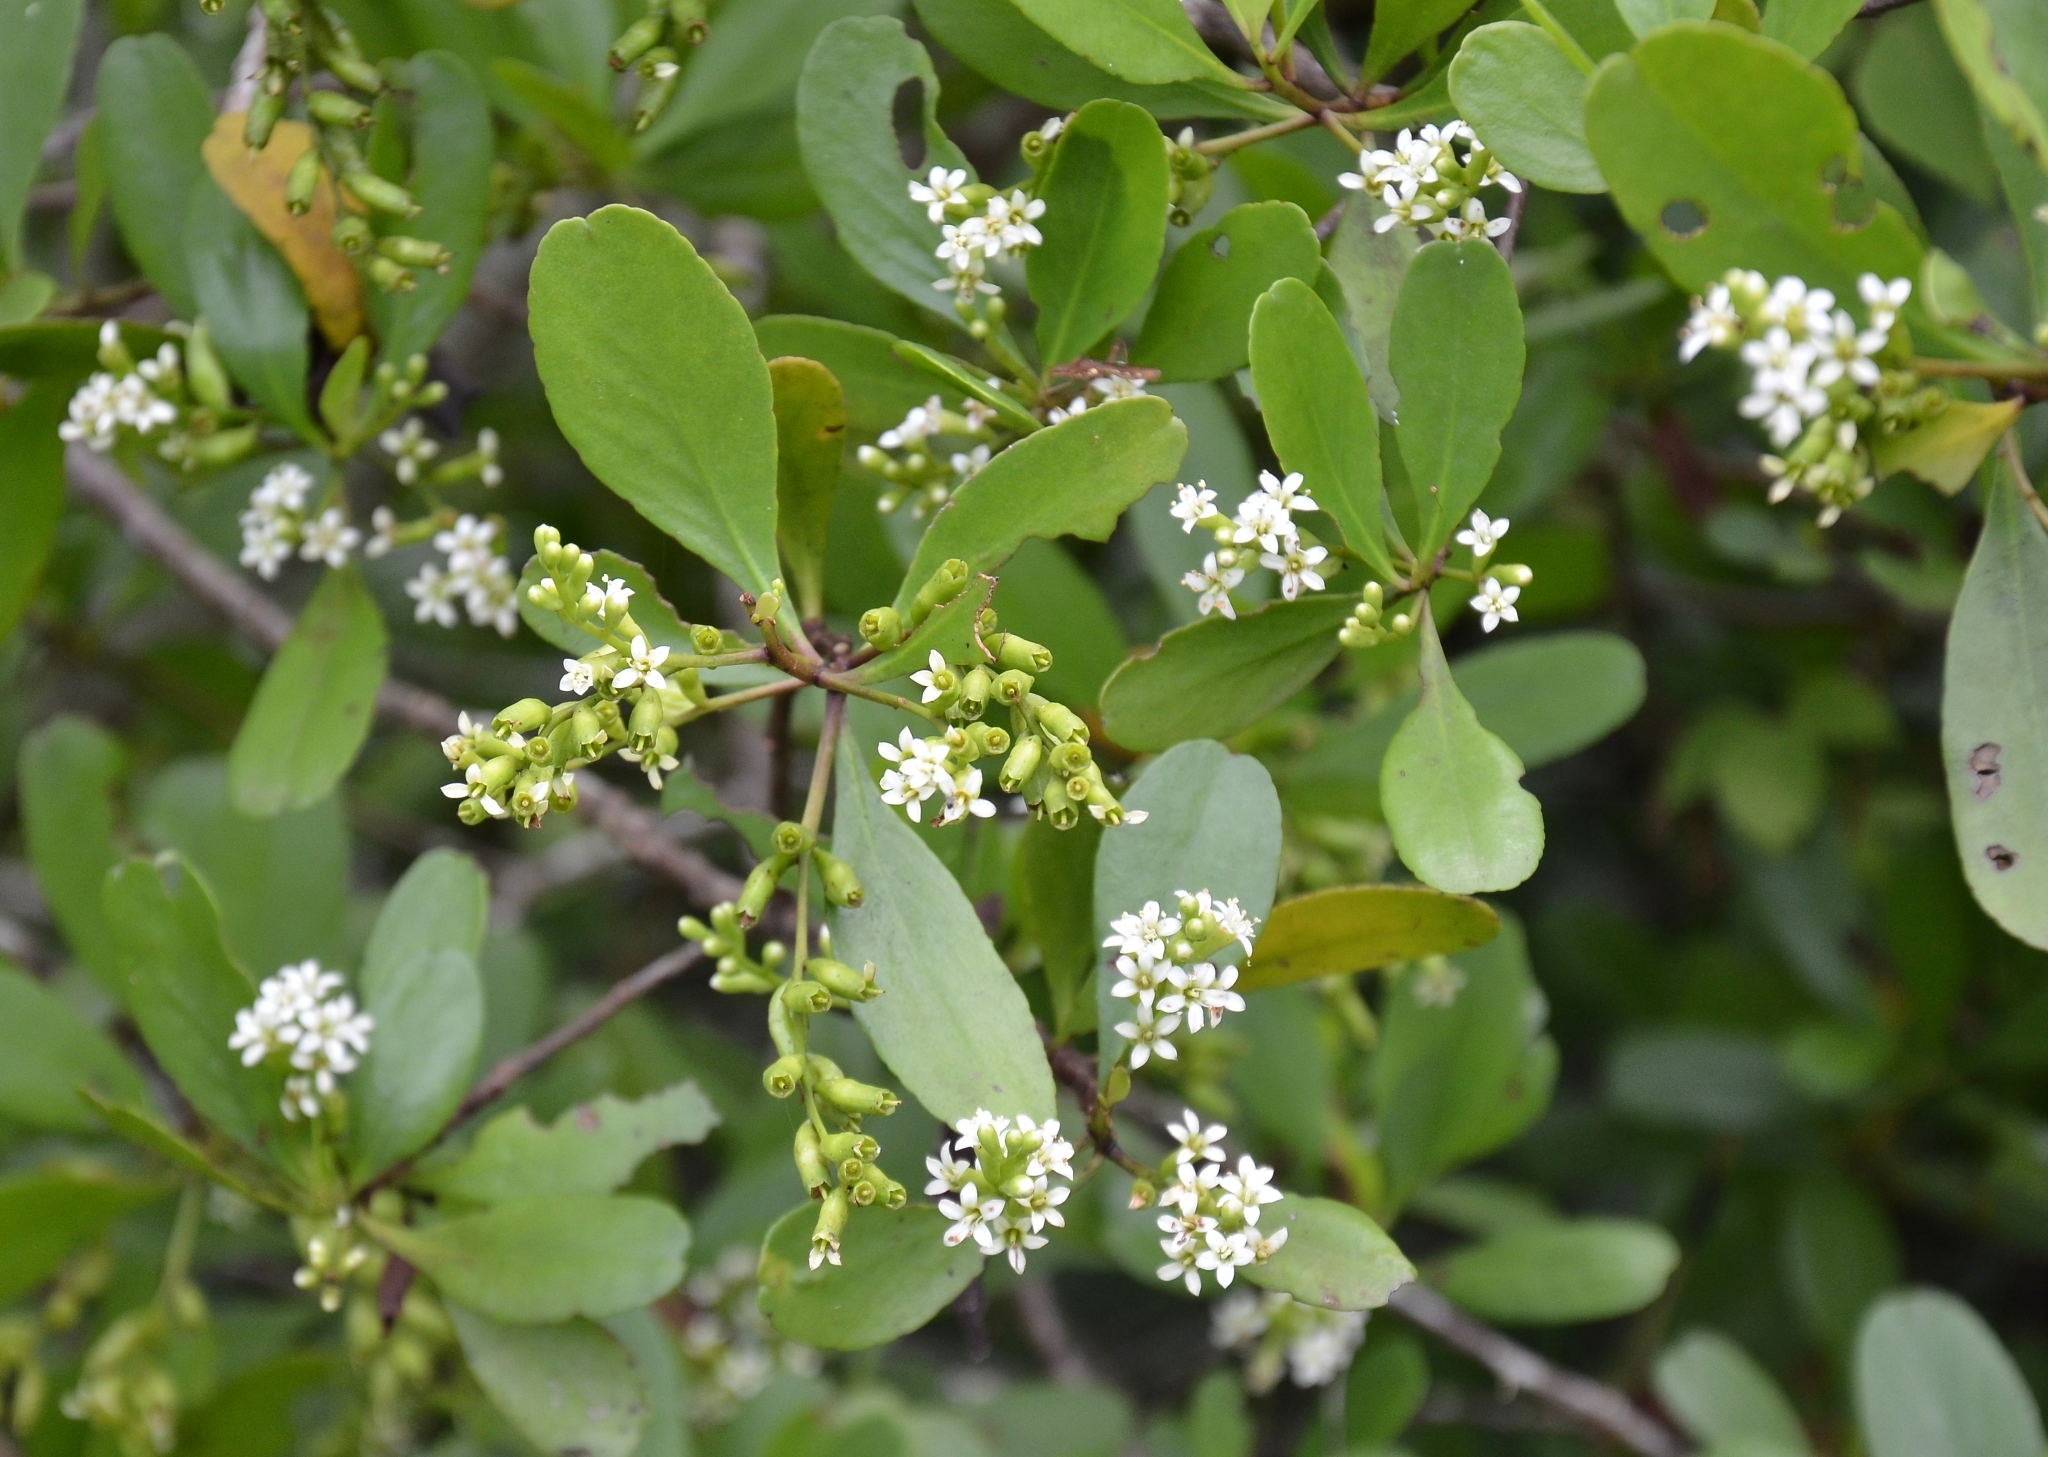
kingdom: Plantae
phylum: Tracheophyta
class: Magnoliopsida
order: Myrtales
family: Combretaceae
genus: Lumnitzera
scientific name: Lumnitzera racemosa
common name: White-flowered black mangrove
